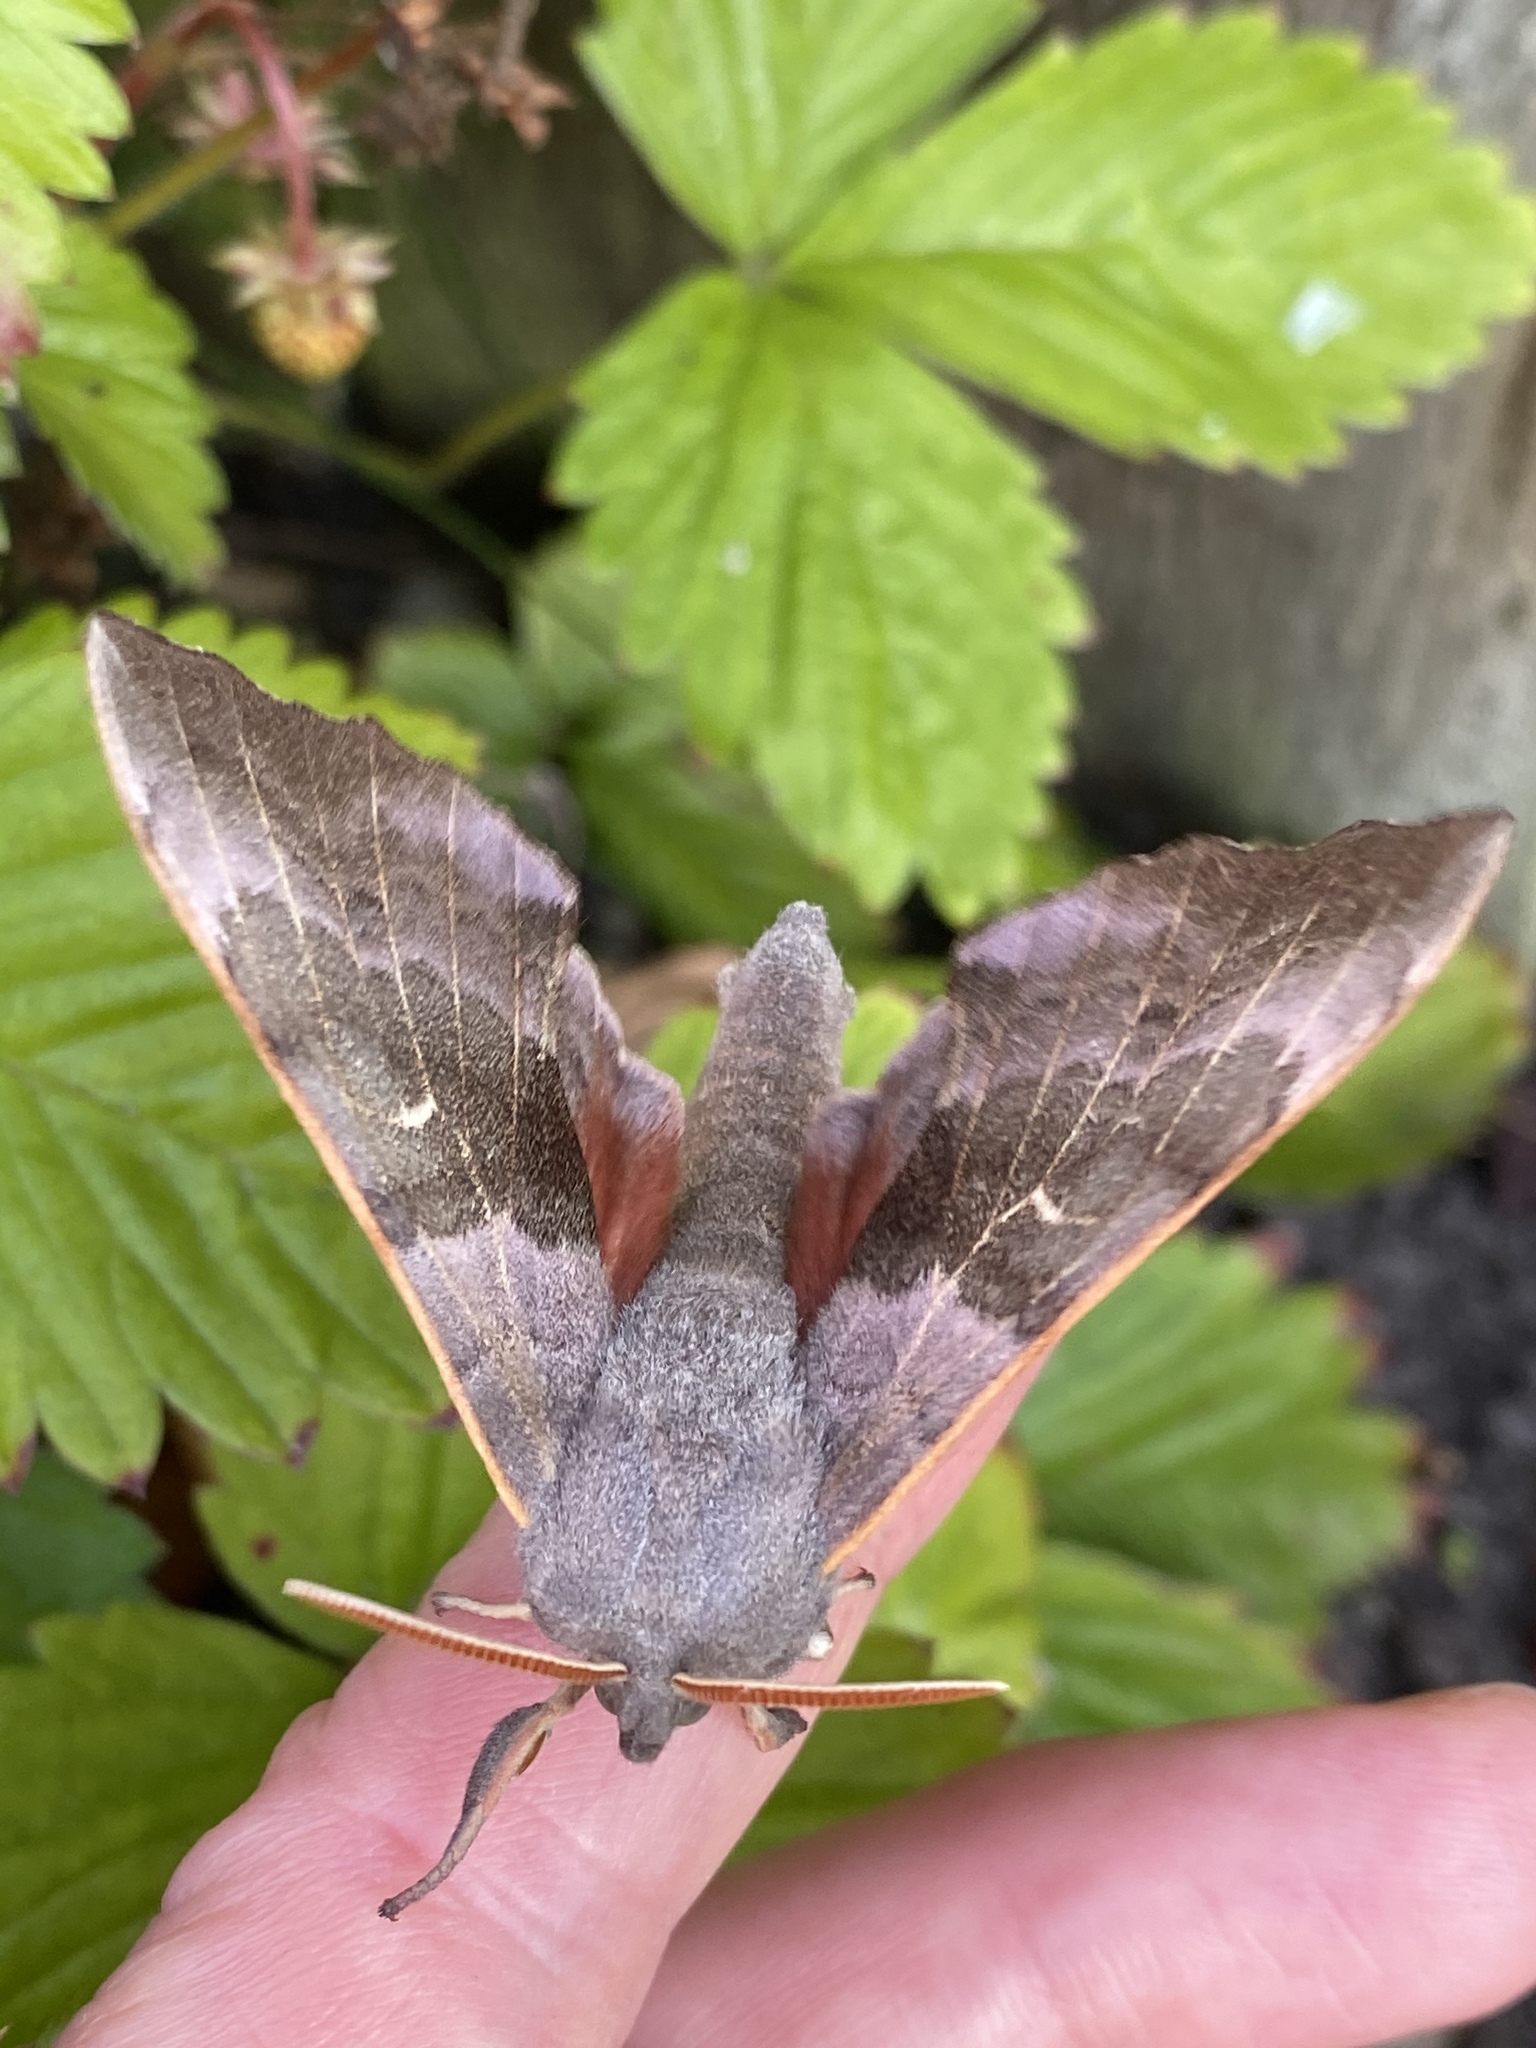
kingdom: Animalia
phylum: Arthropoda
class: Insecta
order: Lepidoptera
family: Sphingidae
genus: Laothoe
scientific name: Laothoe populi
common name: Poplar hawk-moth
